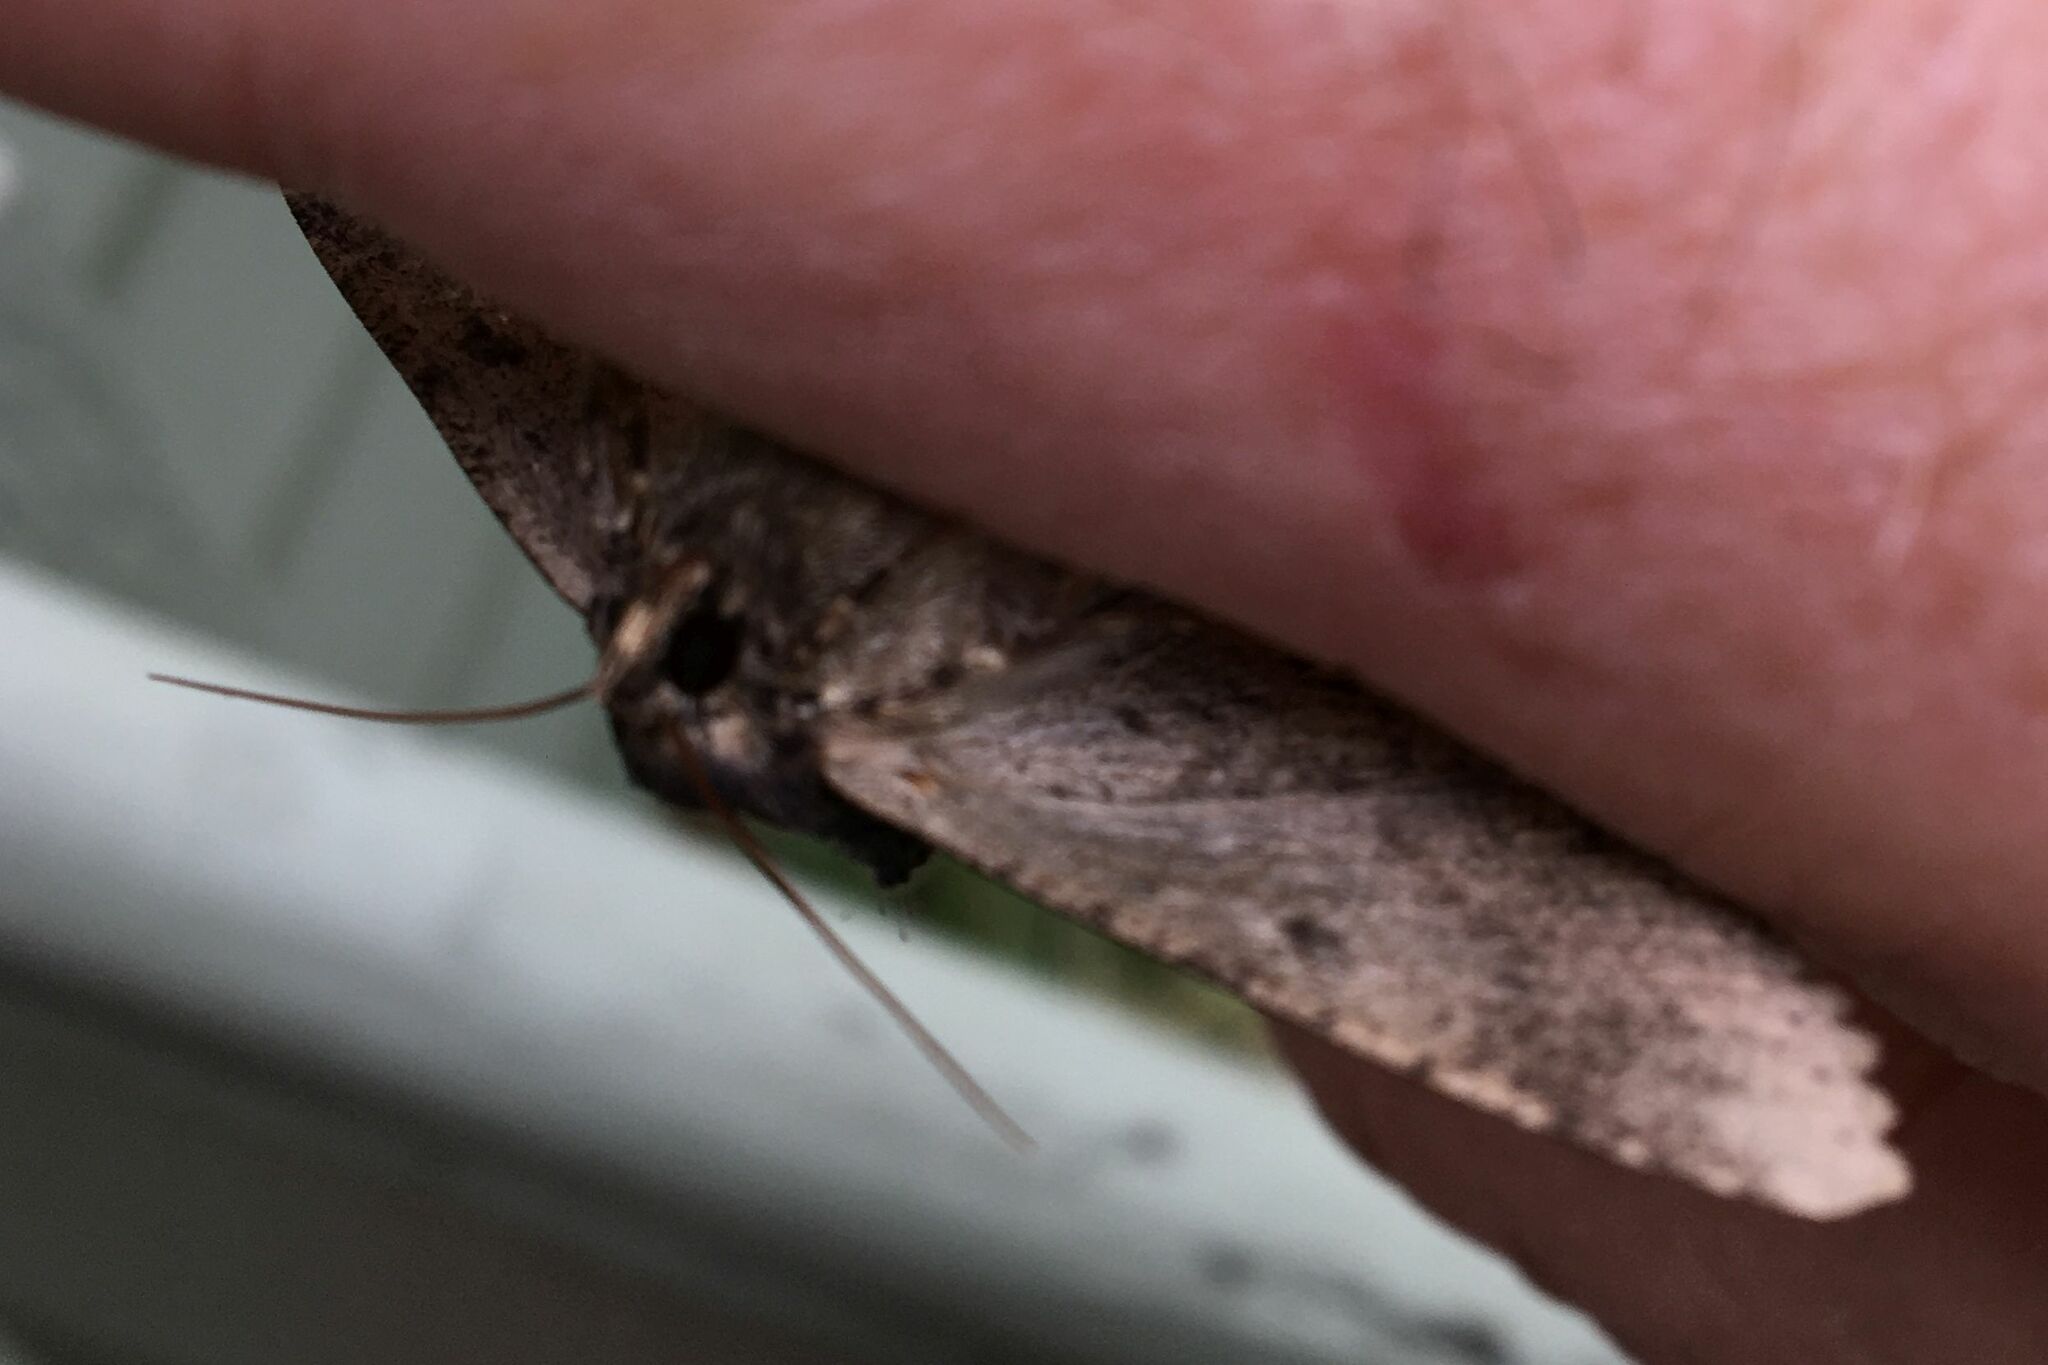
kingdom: Animalia
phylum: Arthropoda
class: Insecta
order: Lepidoptera
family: Erebidae
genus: Zale
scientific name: Zale lunata
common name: Lunate zale moth
